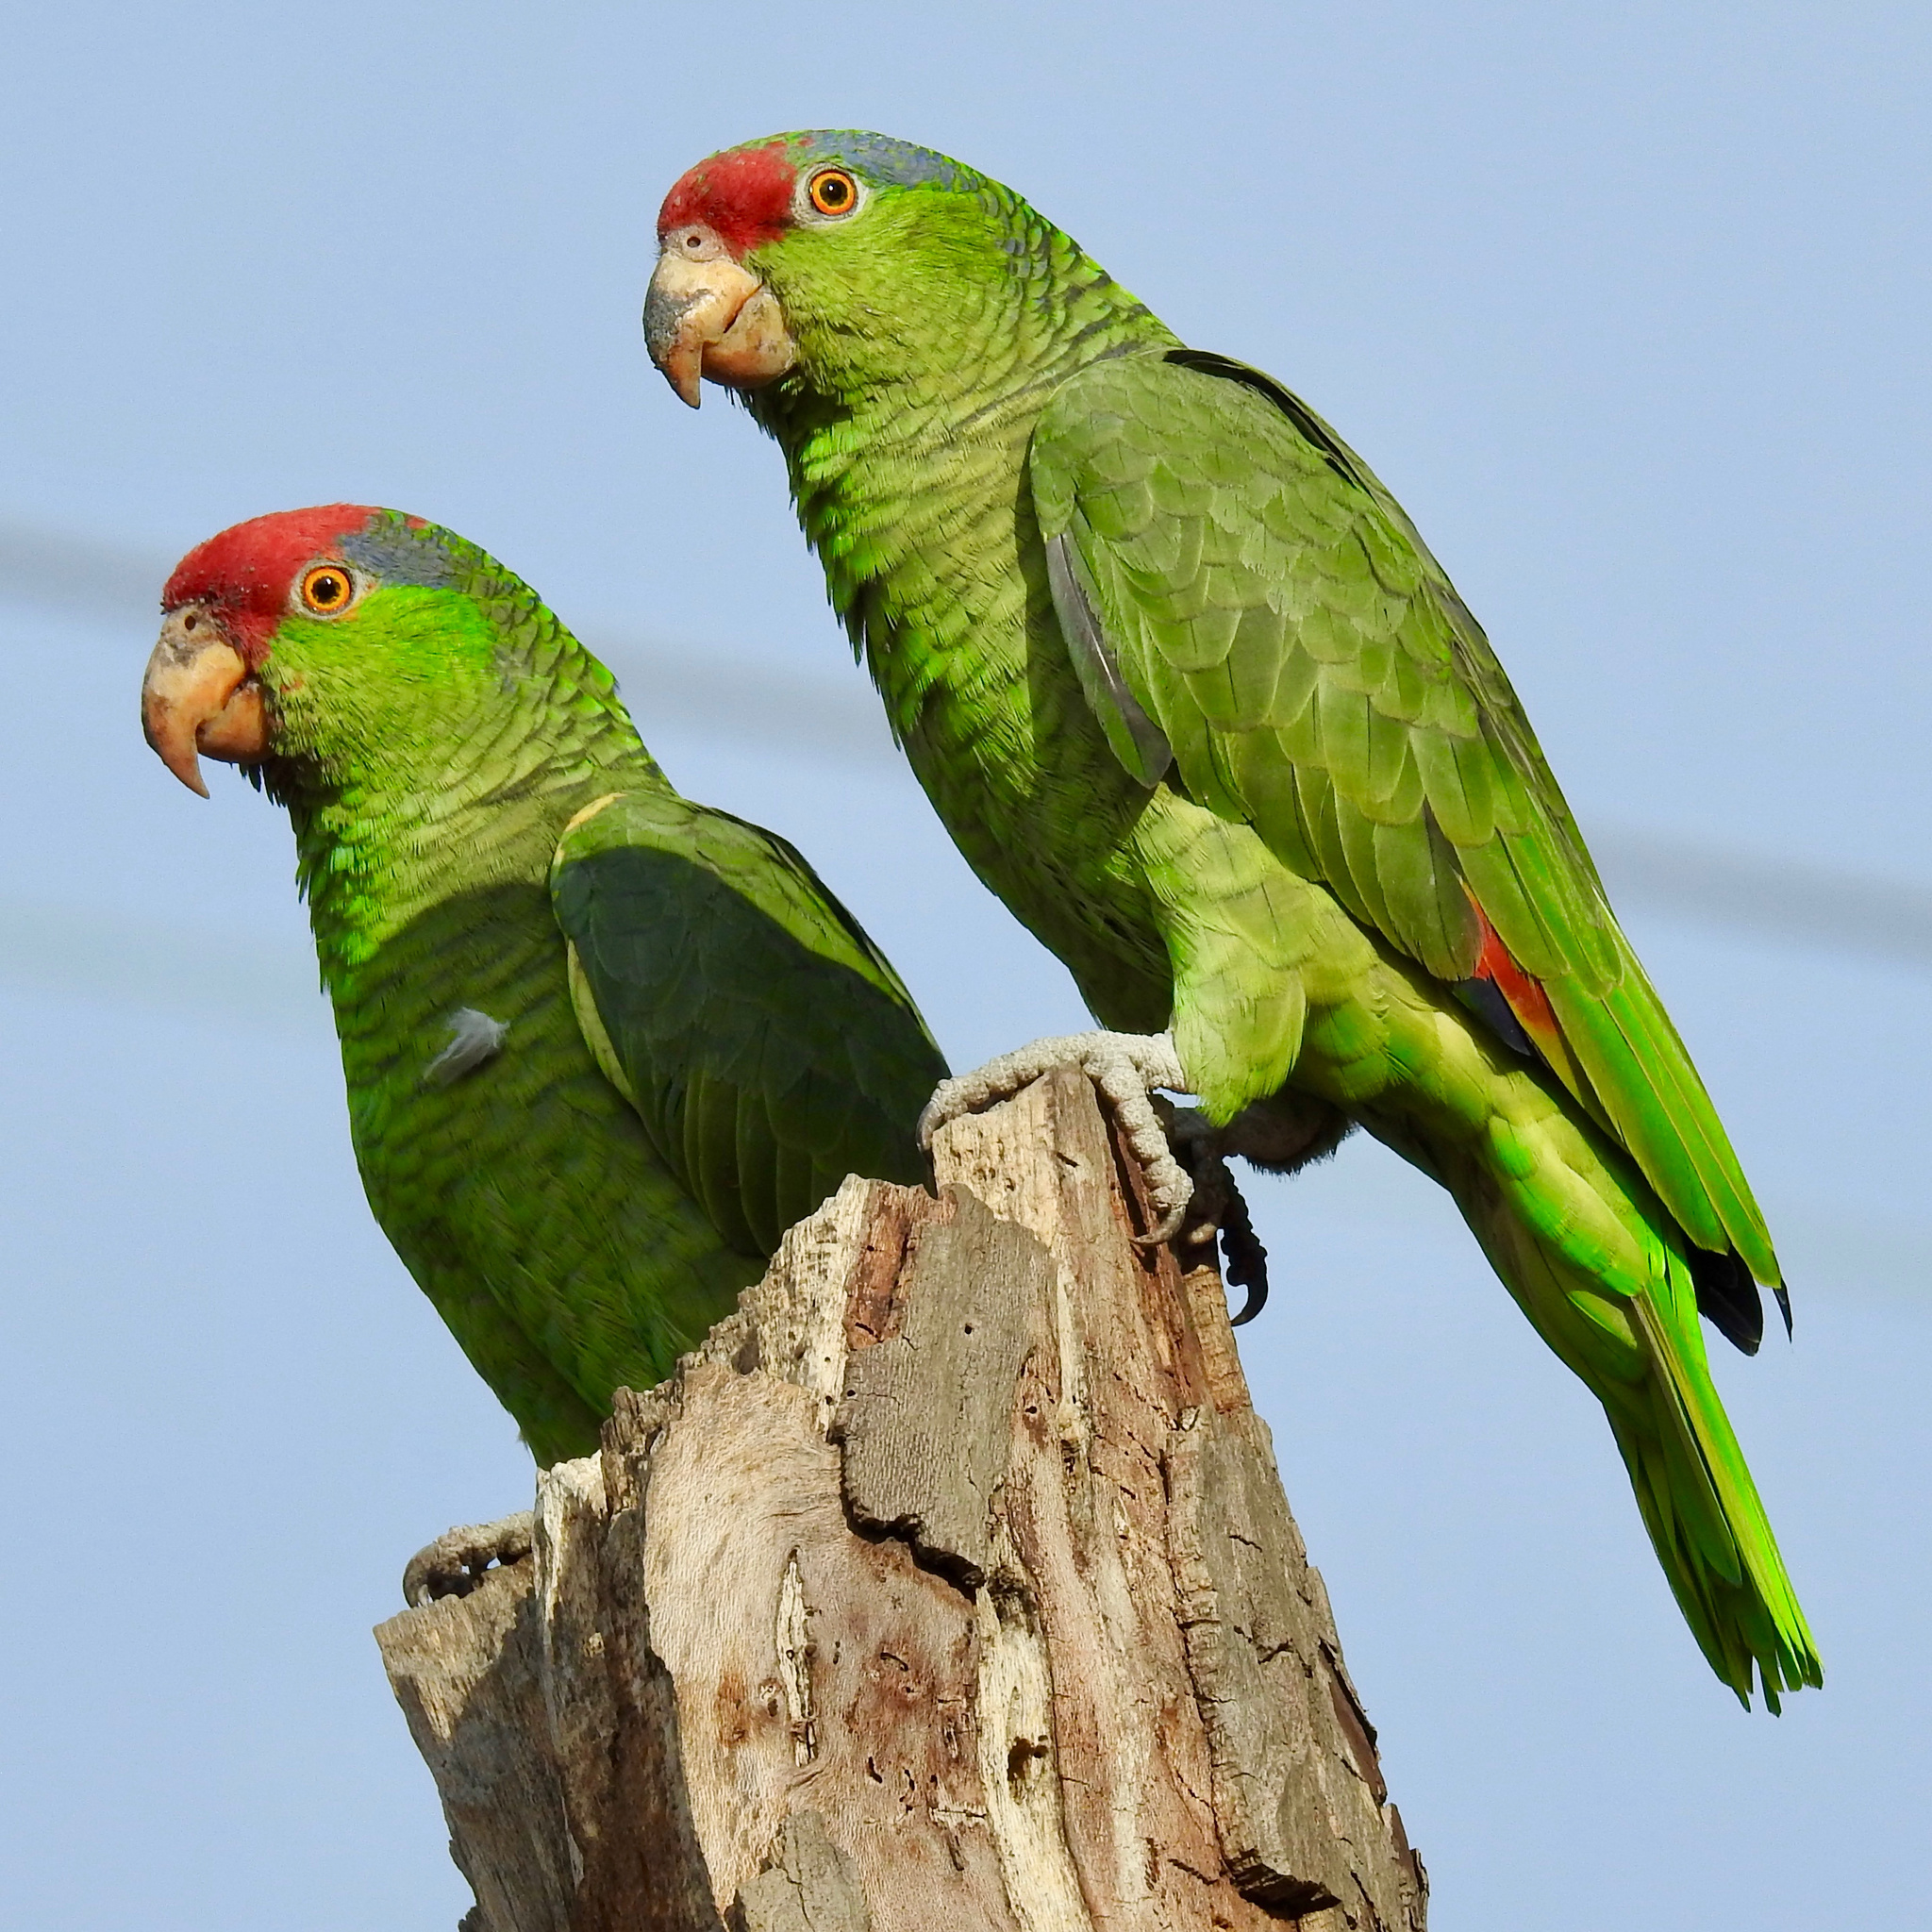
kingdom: Animalia
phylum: Chordata
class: Aves
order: Psittaciformes
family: Psittacidae
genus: Amazona
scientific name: Amazona viridigenalis
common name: Red-crowned amazon
